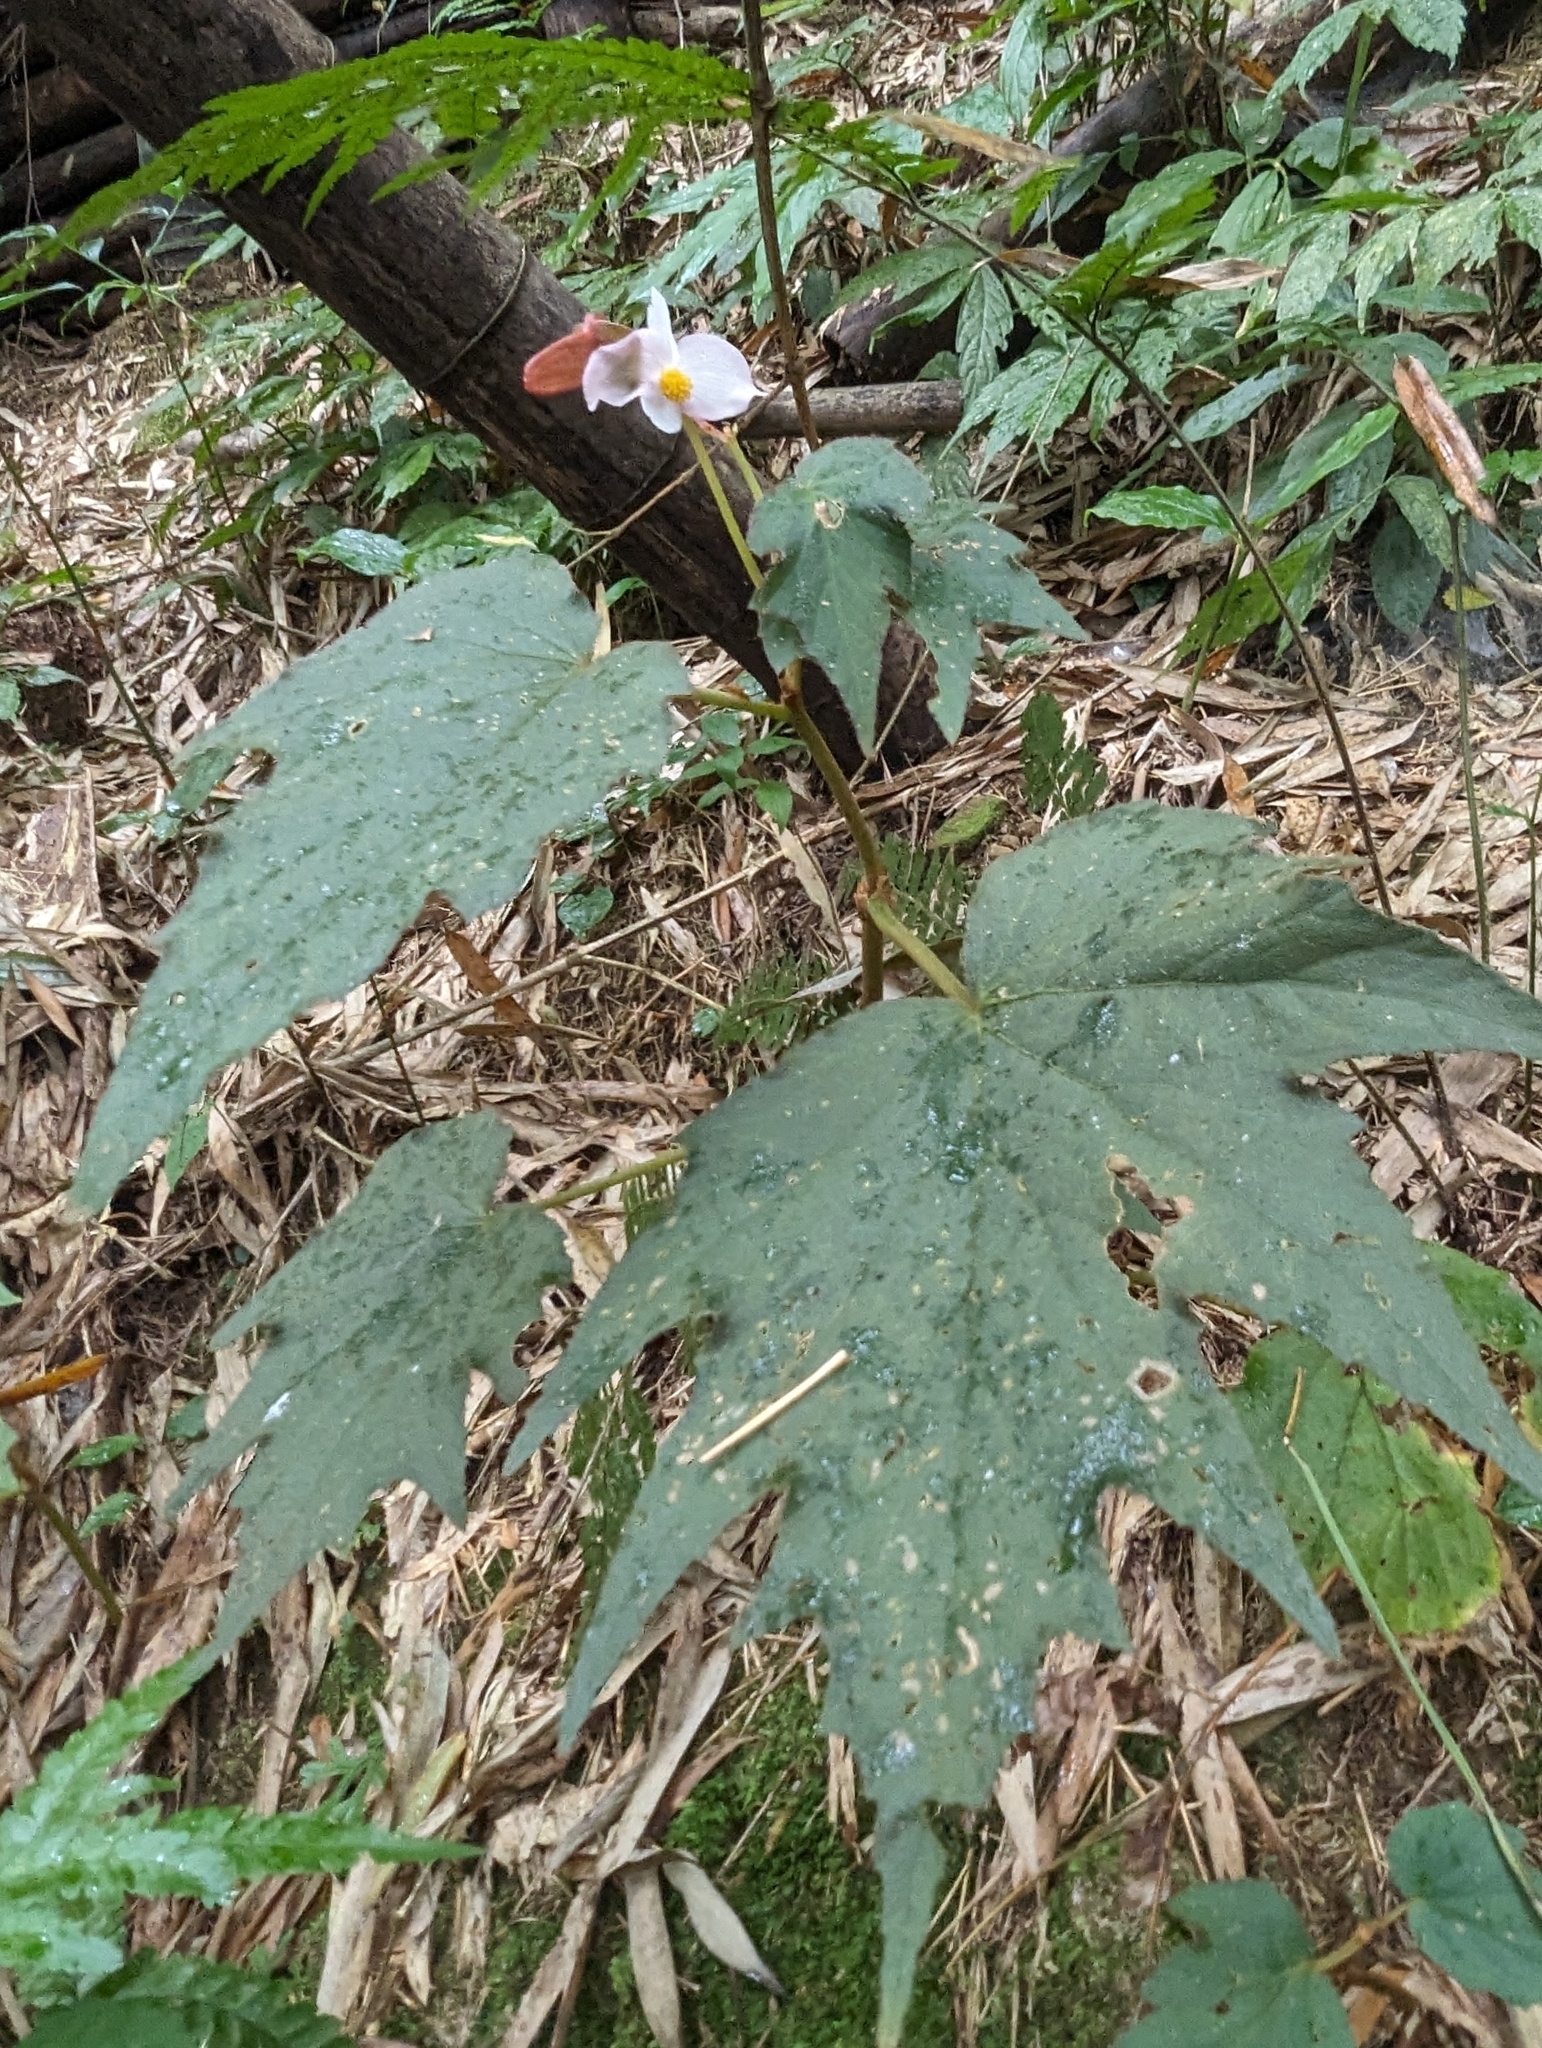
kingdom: Plantae
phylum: Tracheophyta
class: Magnoliopsida
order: Cucurbitales
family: Begoniaceae
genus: Begonia
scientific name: Begonia palmata
